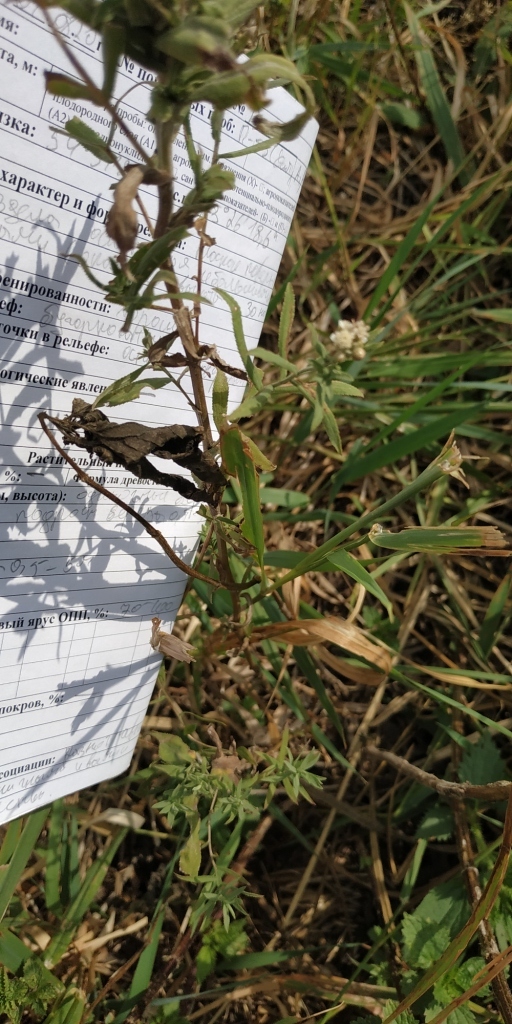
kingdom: Plantae
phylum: Tracheophyta
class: Magnoliopsida
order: Asterales
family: Asteraceae
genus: Achillea
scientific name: Achillea salicifolia
